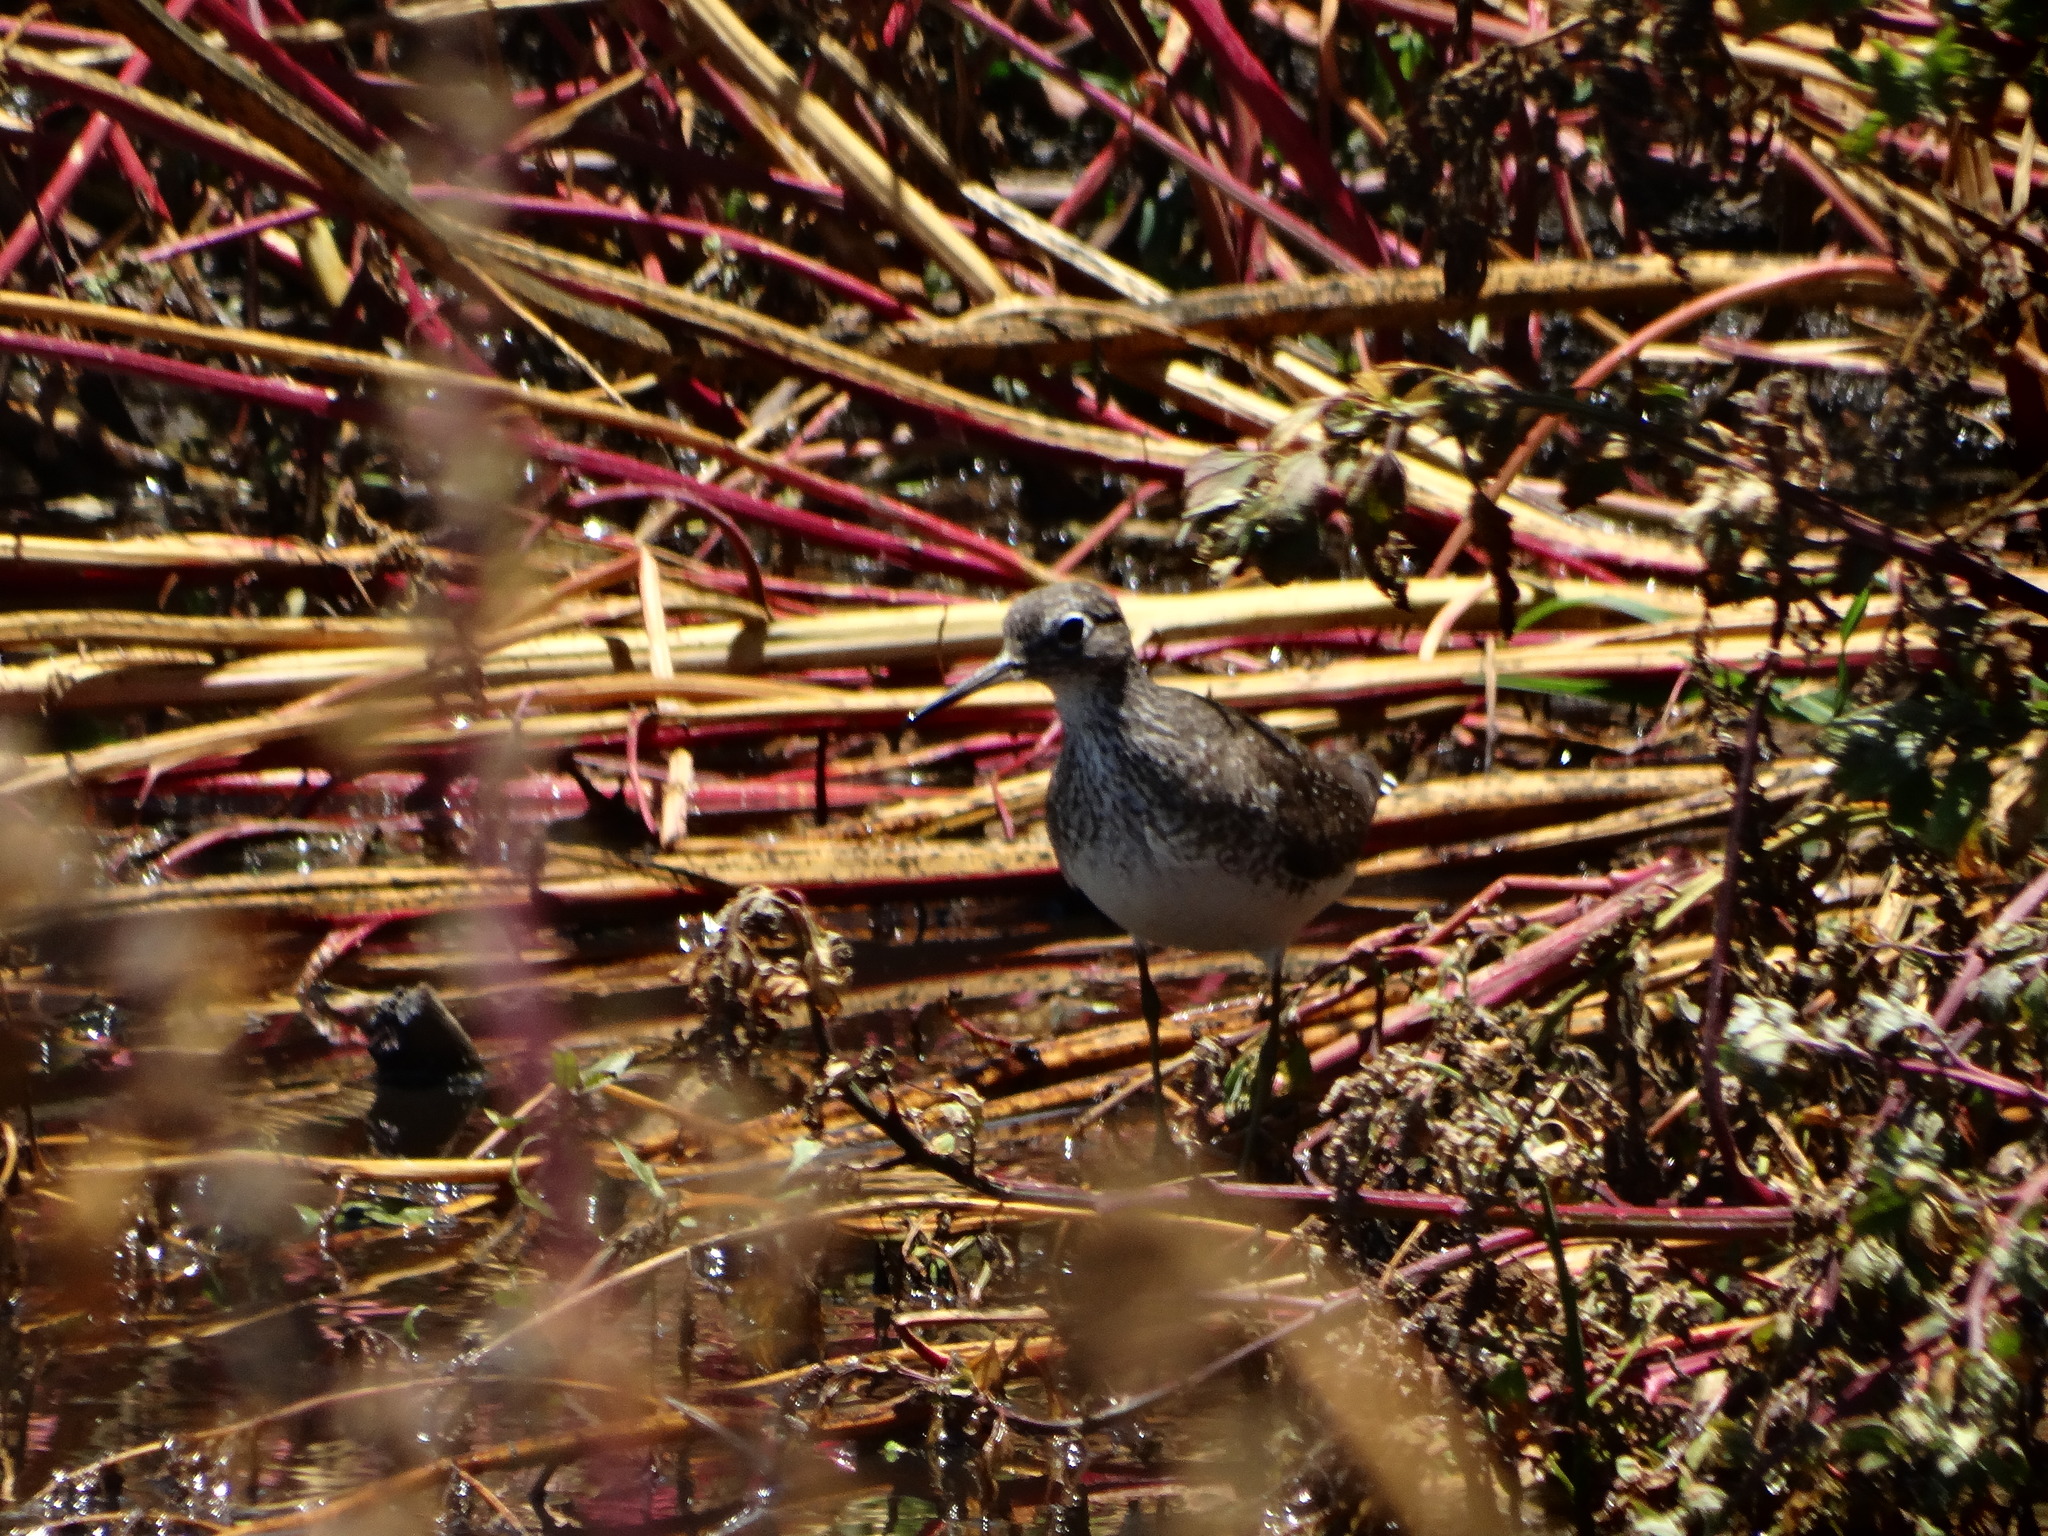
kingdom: Animalia
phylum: Chordata
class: Aves
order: Charadriiformes
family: Scolopacidae
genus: Tringa
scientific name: Tringa solitaria
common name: Solitary sandpiper
